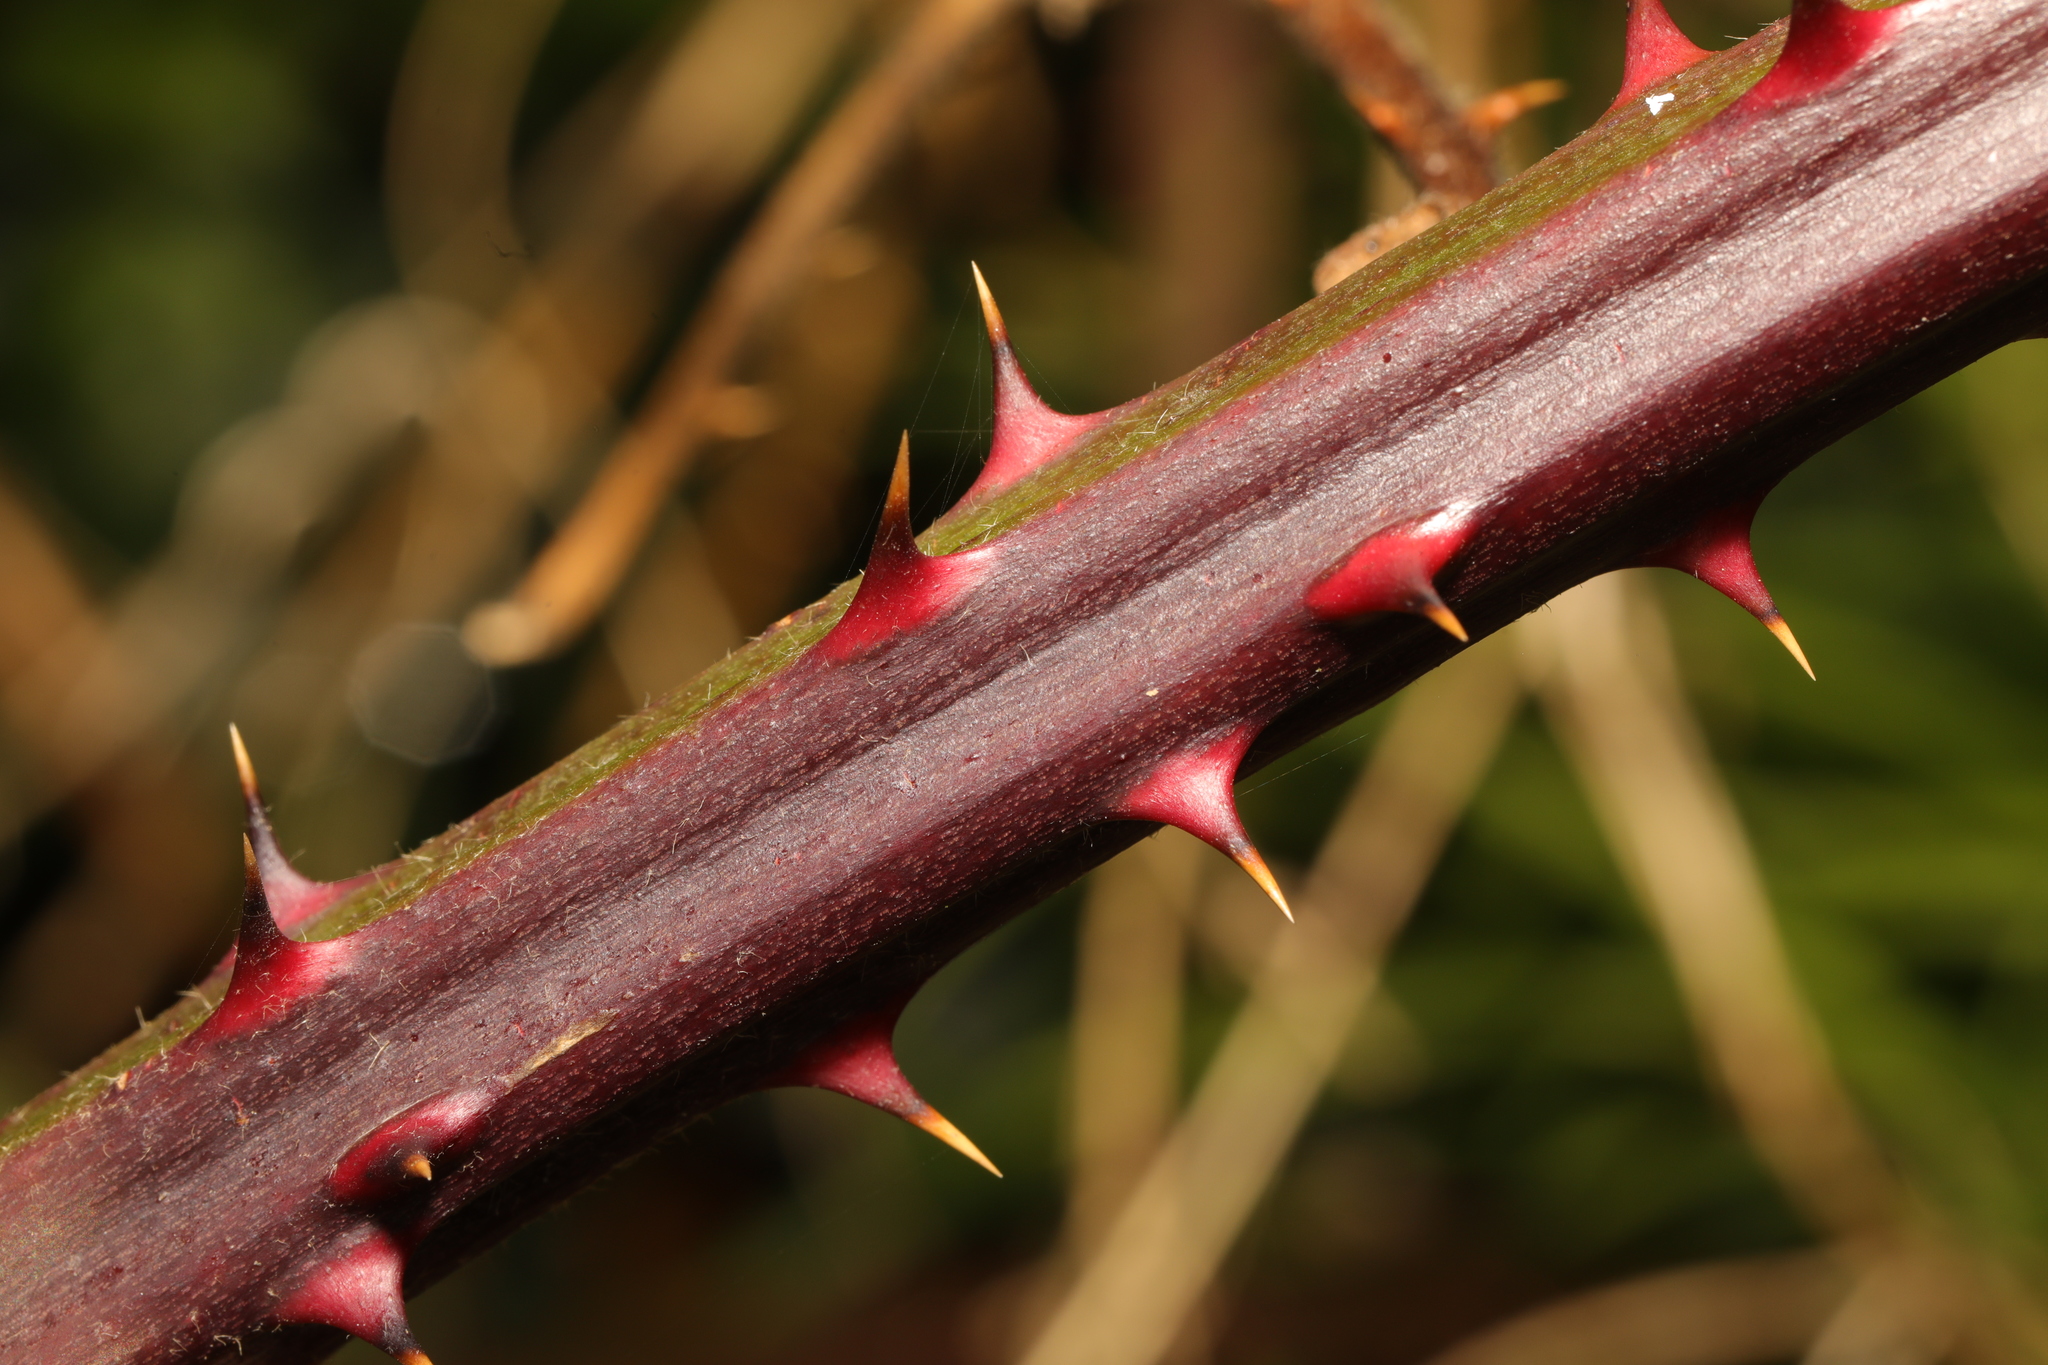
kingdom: Plantae
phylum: Tracheophyta
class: Magnoliopsida
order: Rosales
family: Rosaceae
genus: Rubus
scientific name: Rubus armeniacus
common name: Himalayan blackberry
